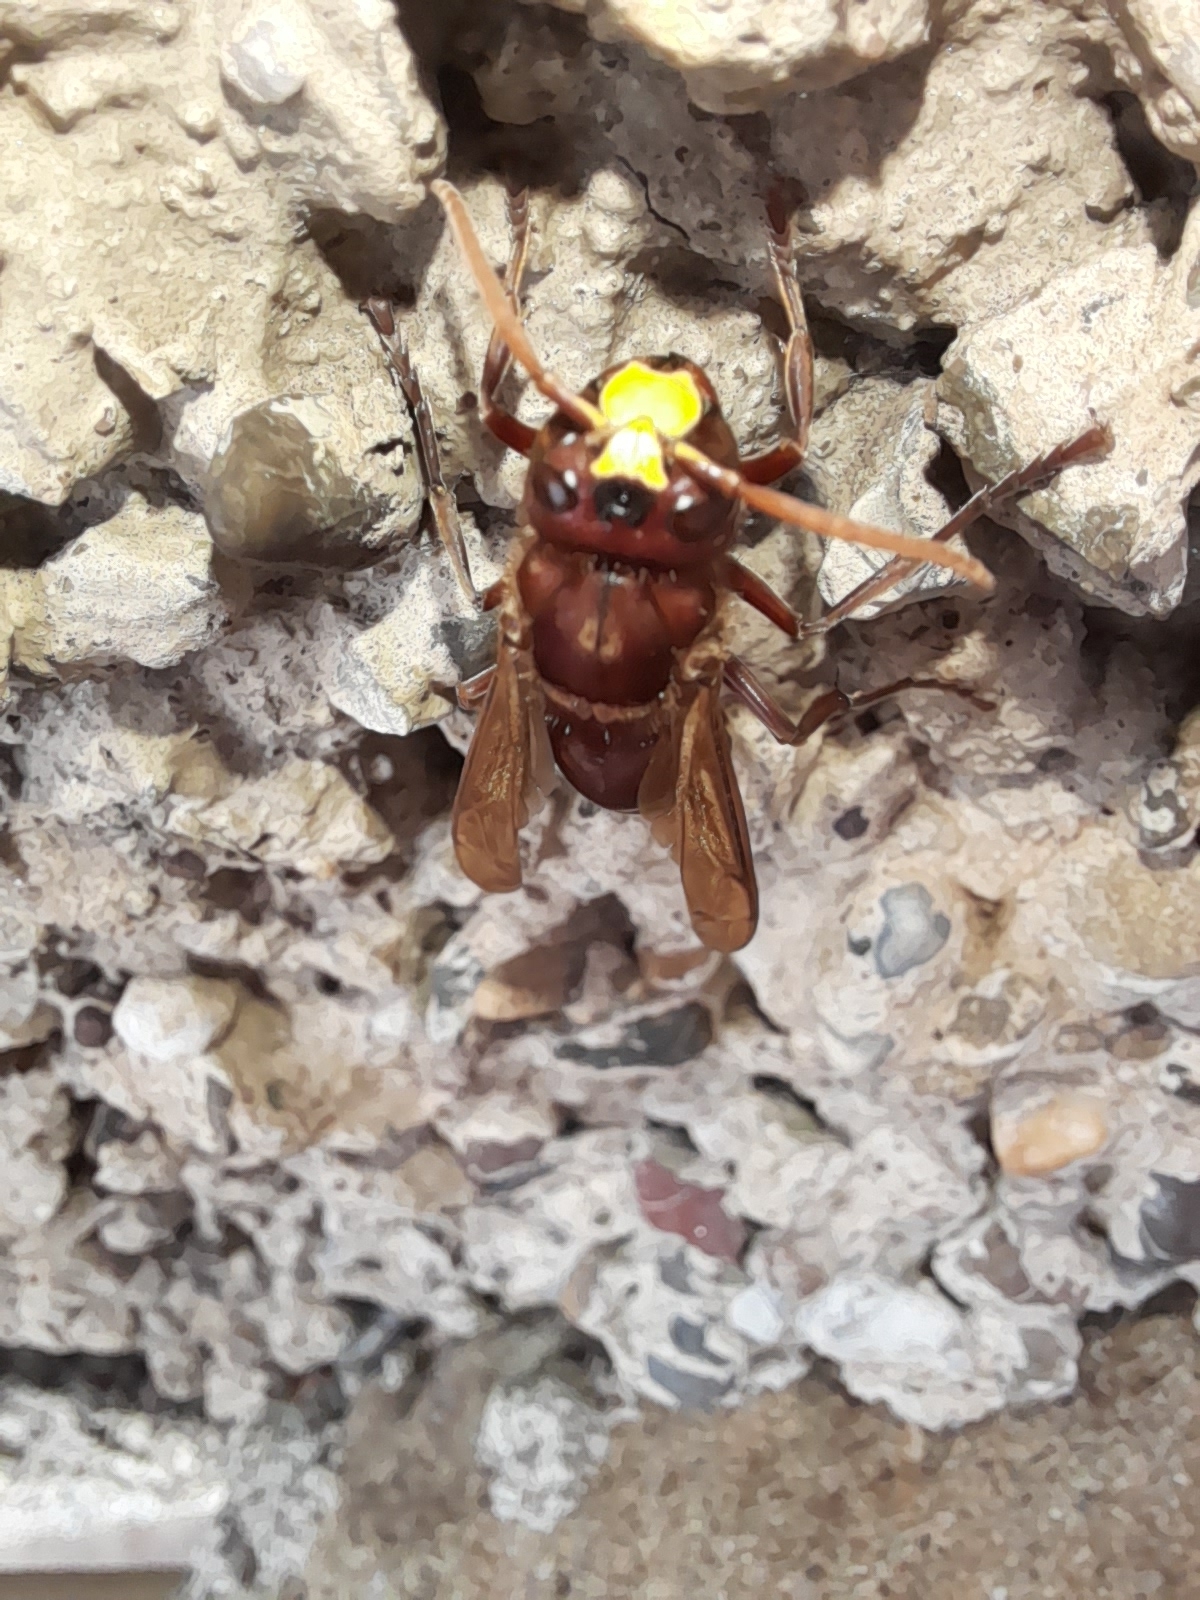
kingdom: Animalia
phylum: Arthropoda
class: Insecta
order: Hymenoptera
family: Vespidae
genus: Vespa
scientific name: Vespa orientalis
